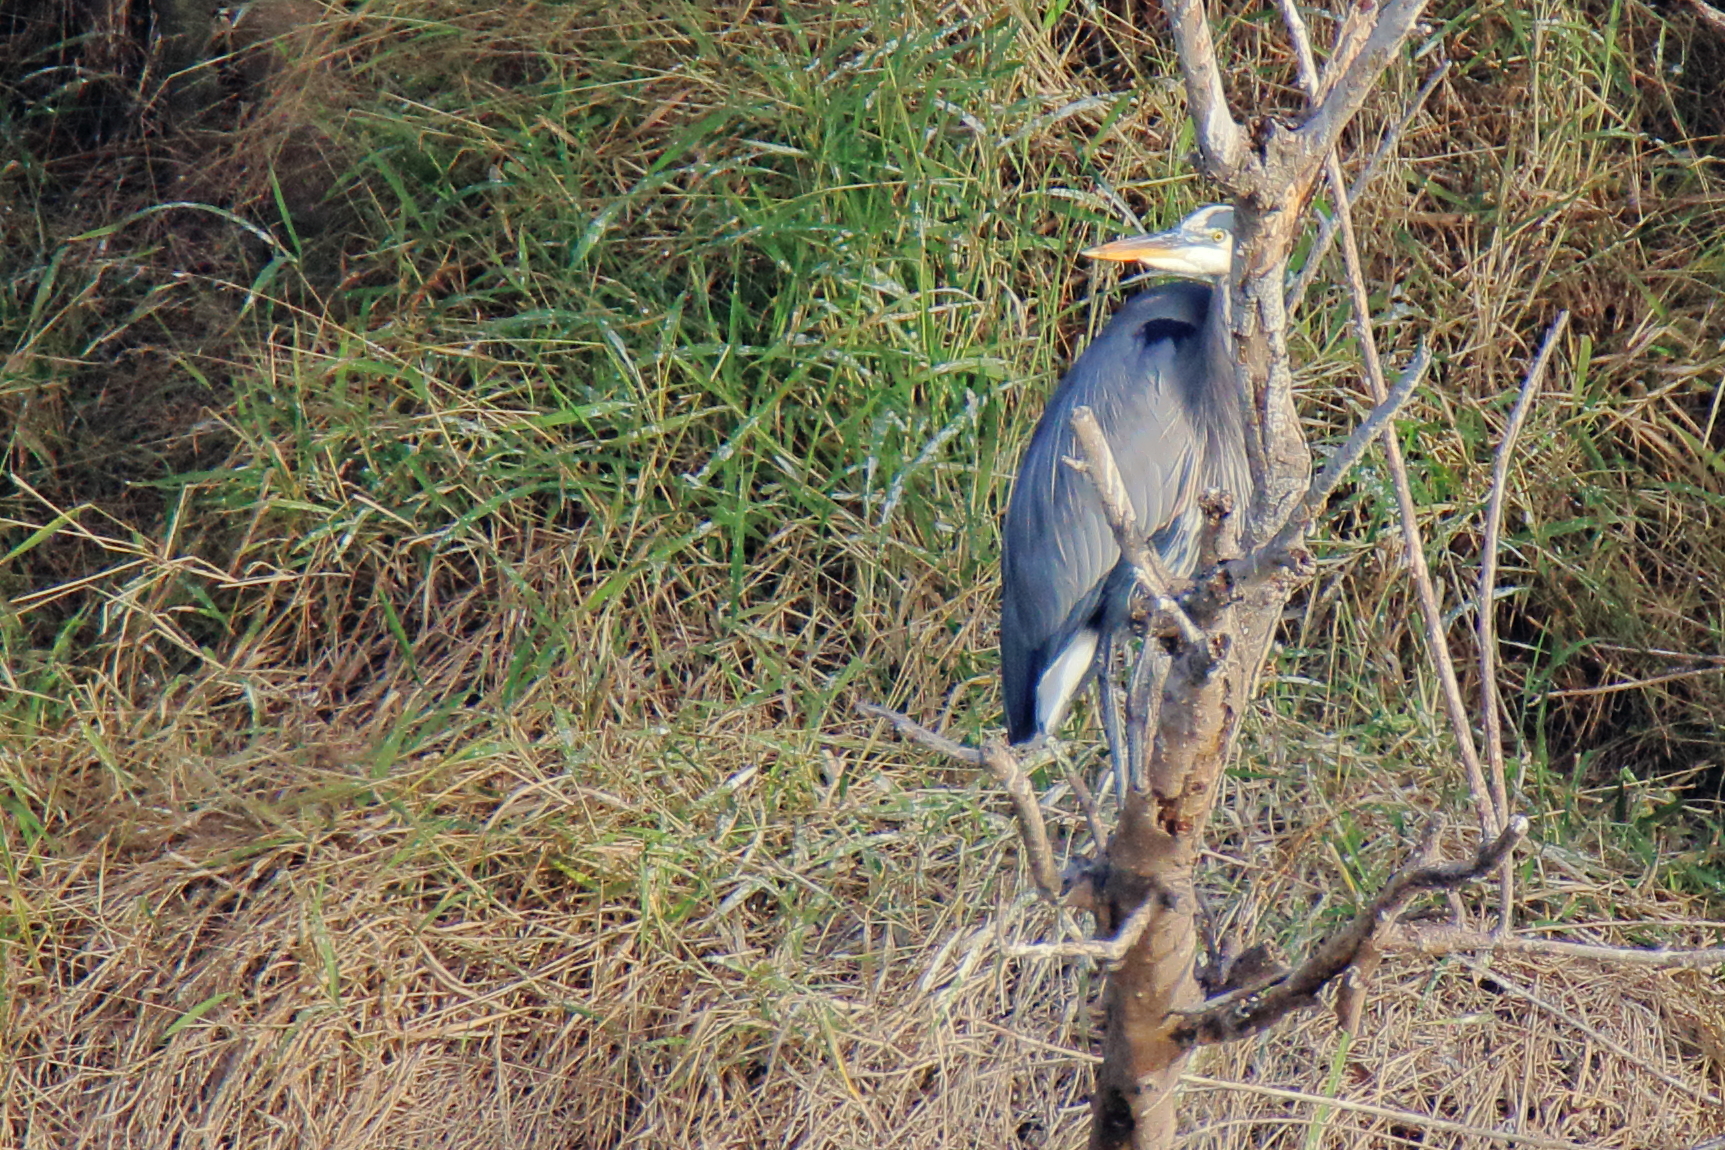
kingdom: Animalia
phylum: Chordata
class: Aves
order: Pelecaniformes
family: Ardeidae
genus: Ardea
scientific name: Ardea herodias
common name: Great blue heron
